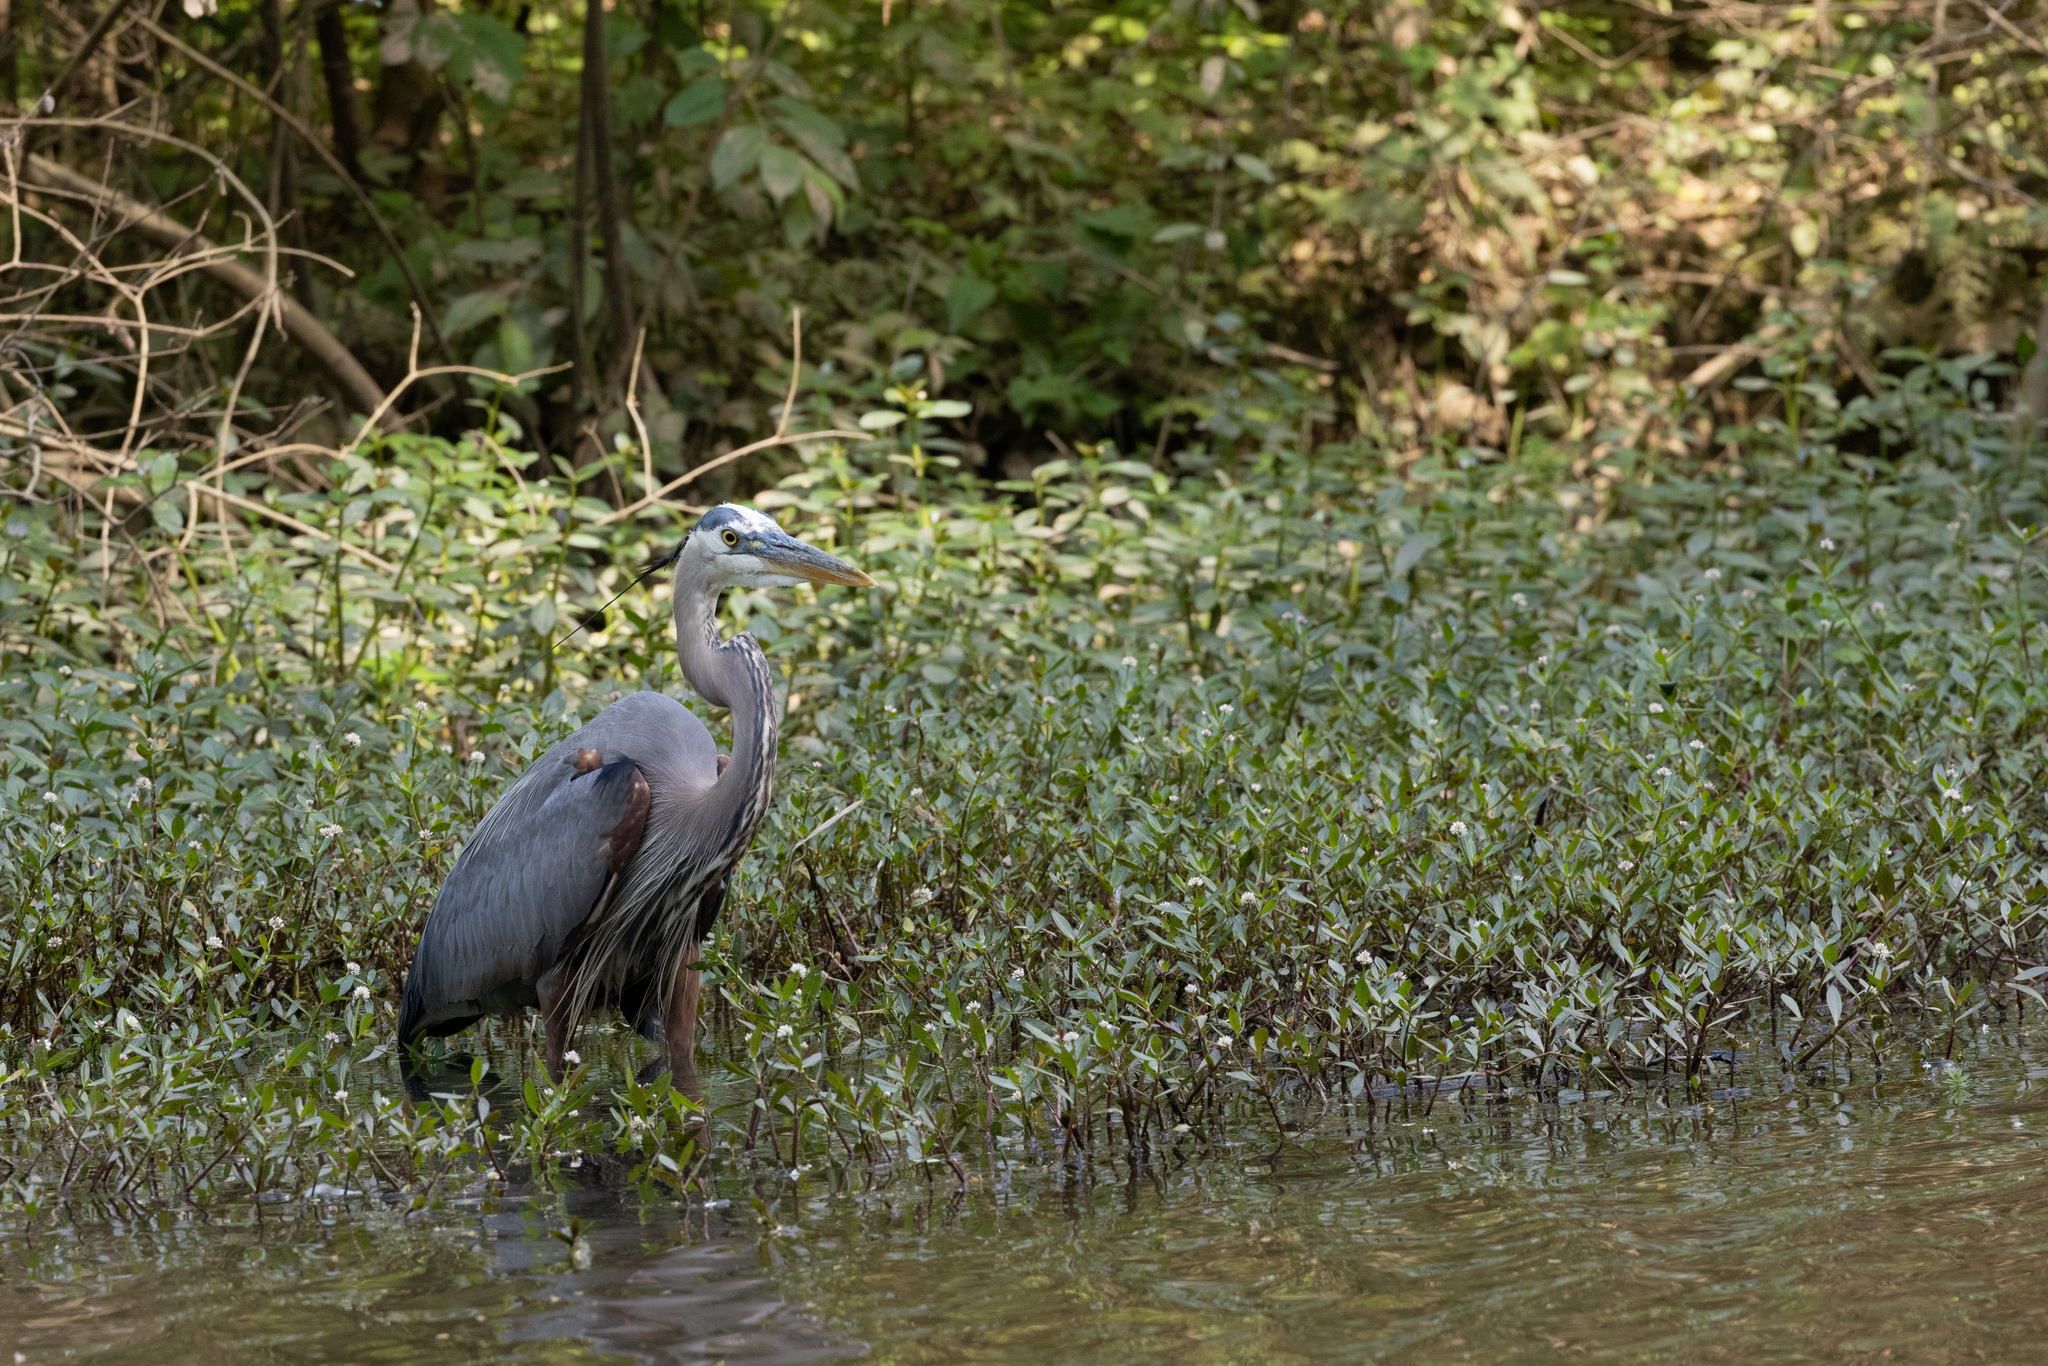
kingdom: Animalia
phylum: Chordata
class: Aves
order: Pelecaniformes
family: Ardeidae
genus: Ardea
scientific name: Ardea herodias
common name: Great blue heron
